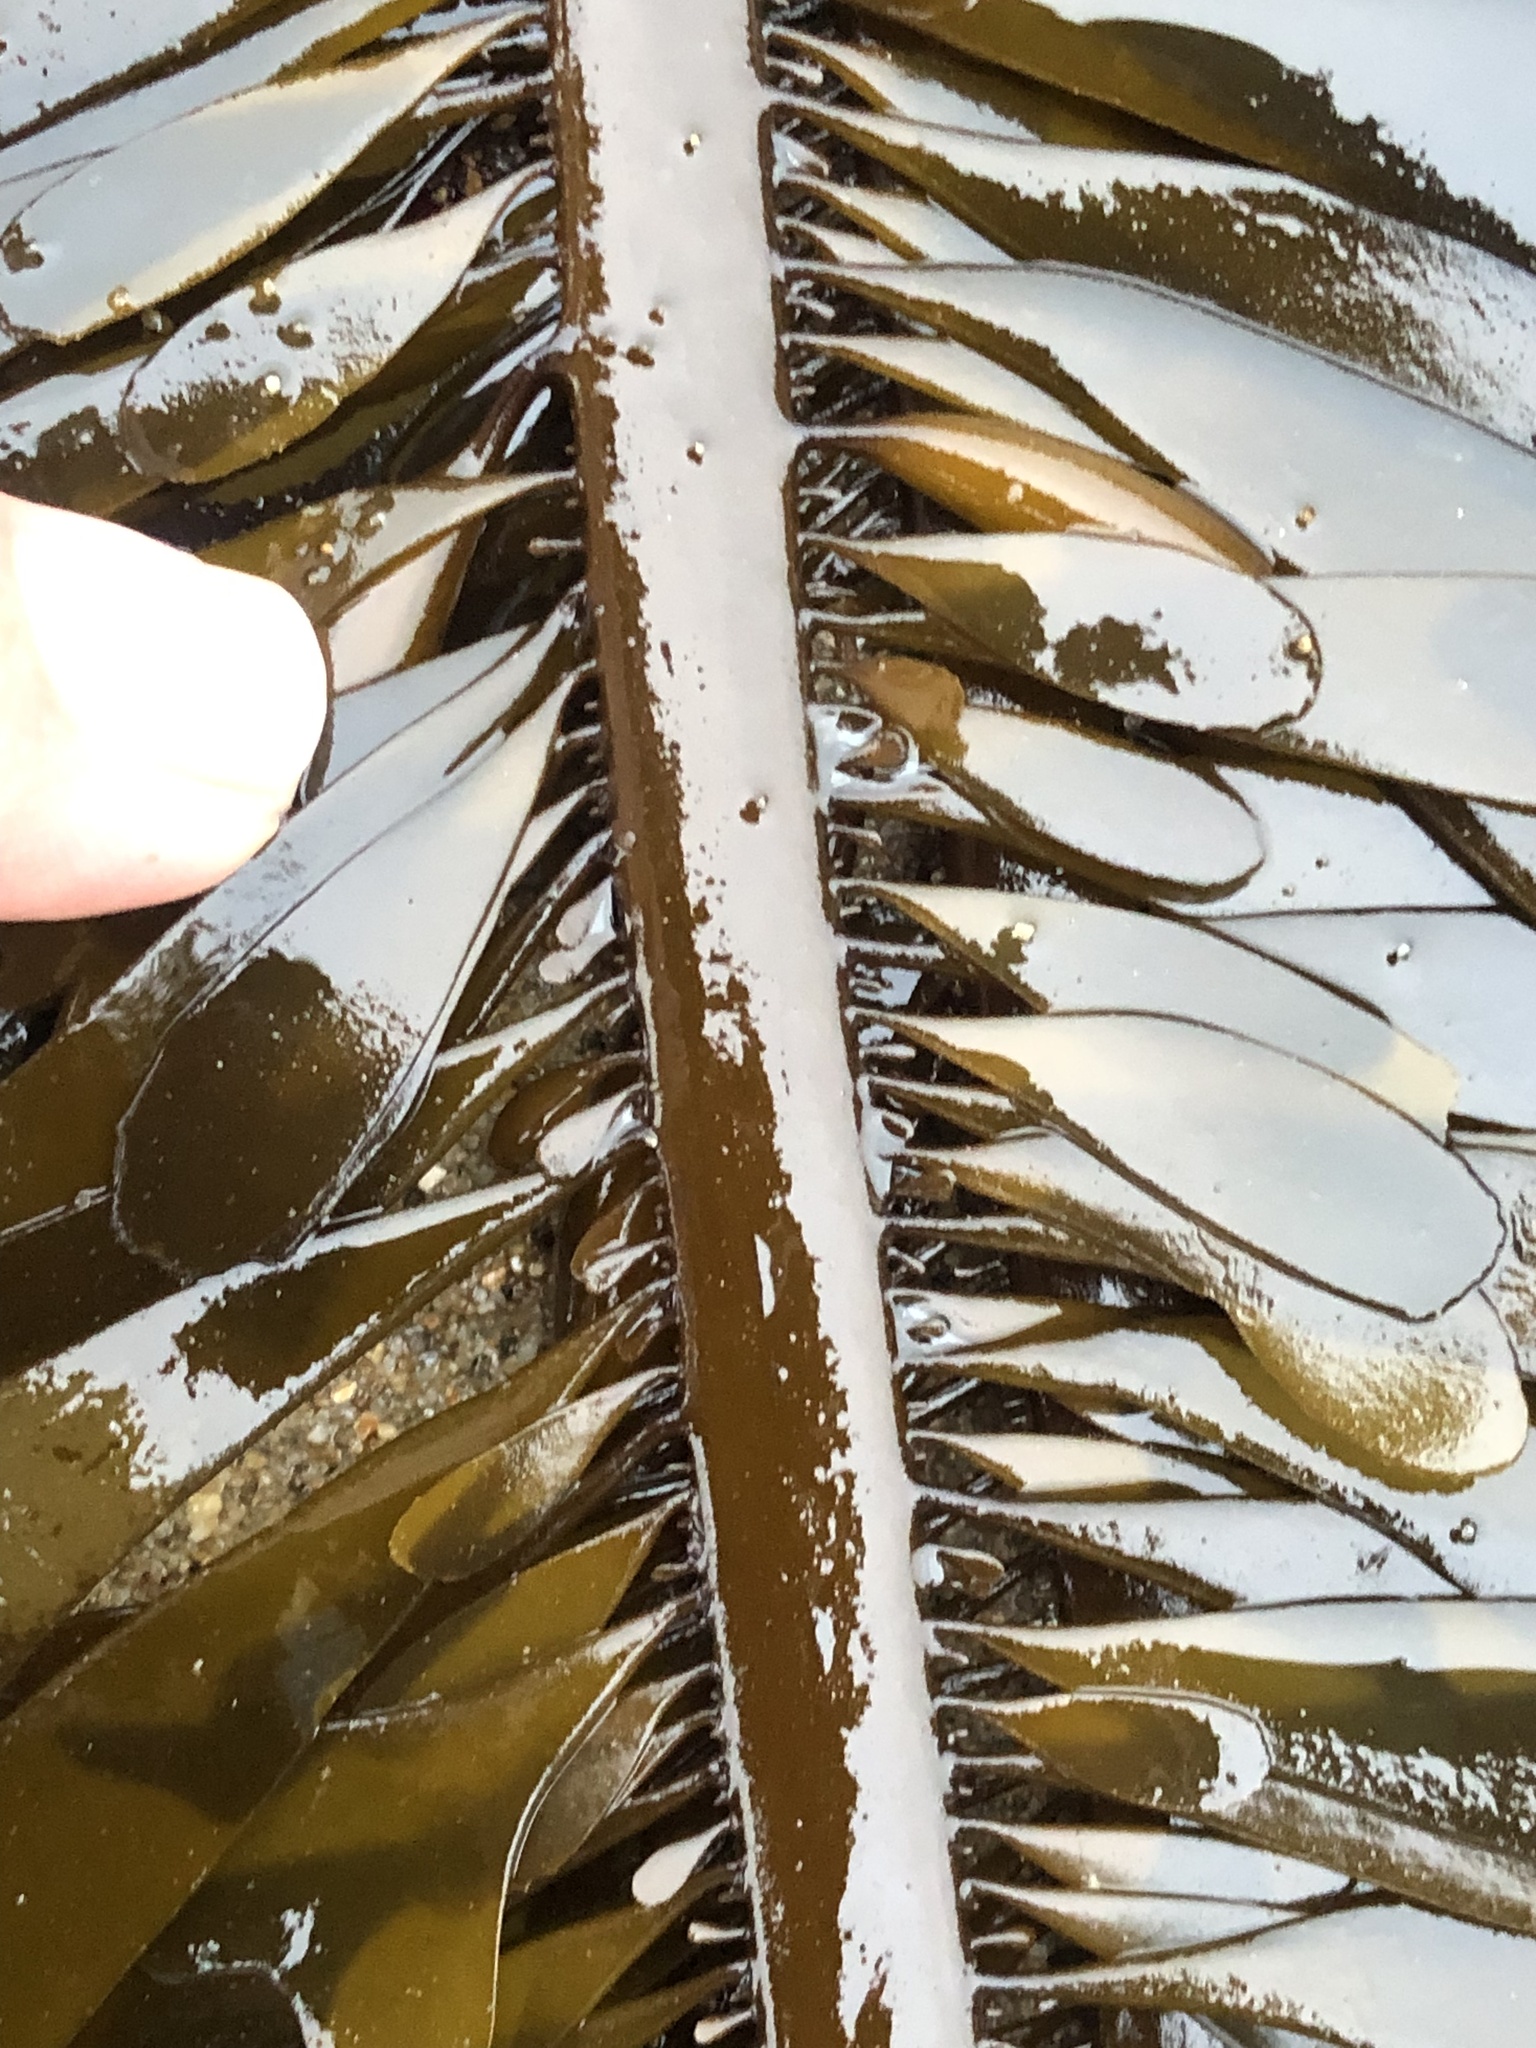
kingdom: Chromista
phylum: Ochrophyta
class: Phaeophyceae
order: Laminariales
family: Lessoniaceae
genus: Egregia
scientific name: Egregia menziesii
